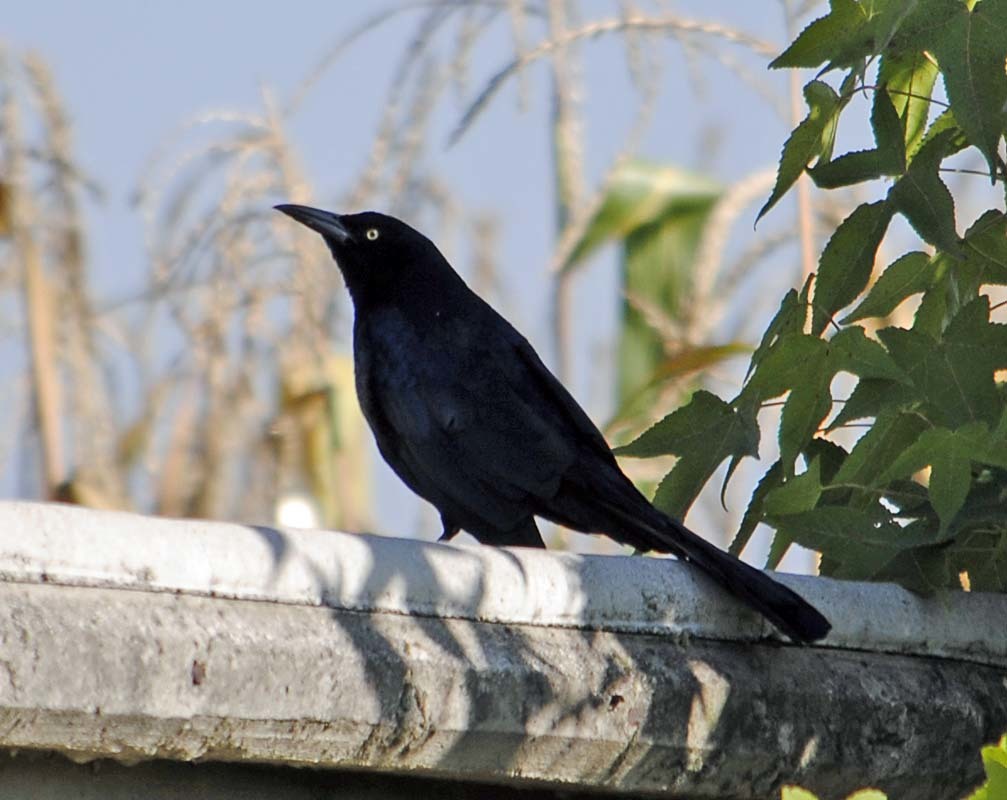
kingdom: Animalia
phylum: Chordata
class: Aves
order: Passeriformes
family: Icteridae
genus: Quiscalus
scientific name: Quiscalus mexicanus
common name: Great-tailed grackle
